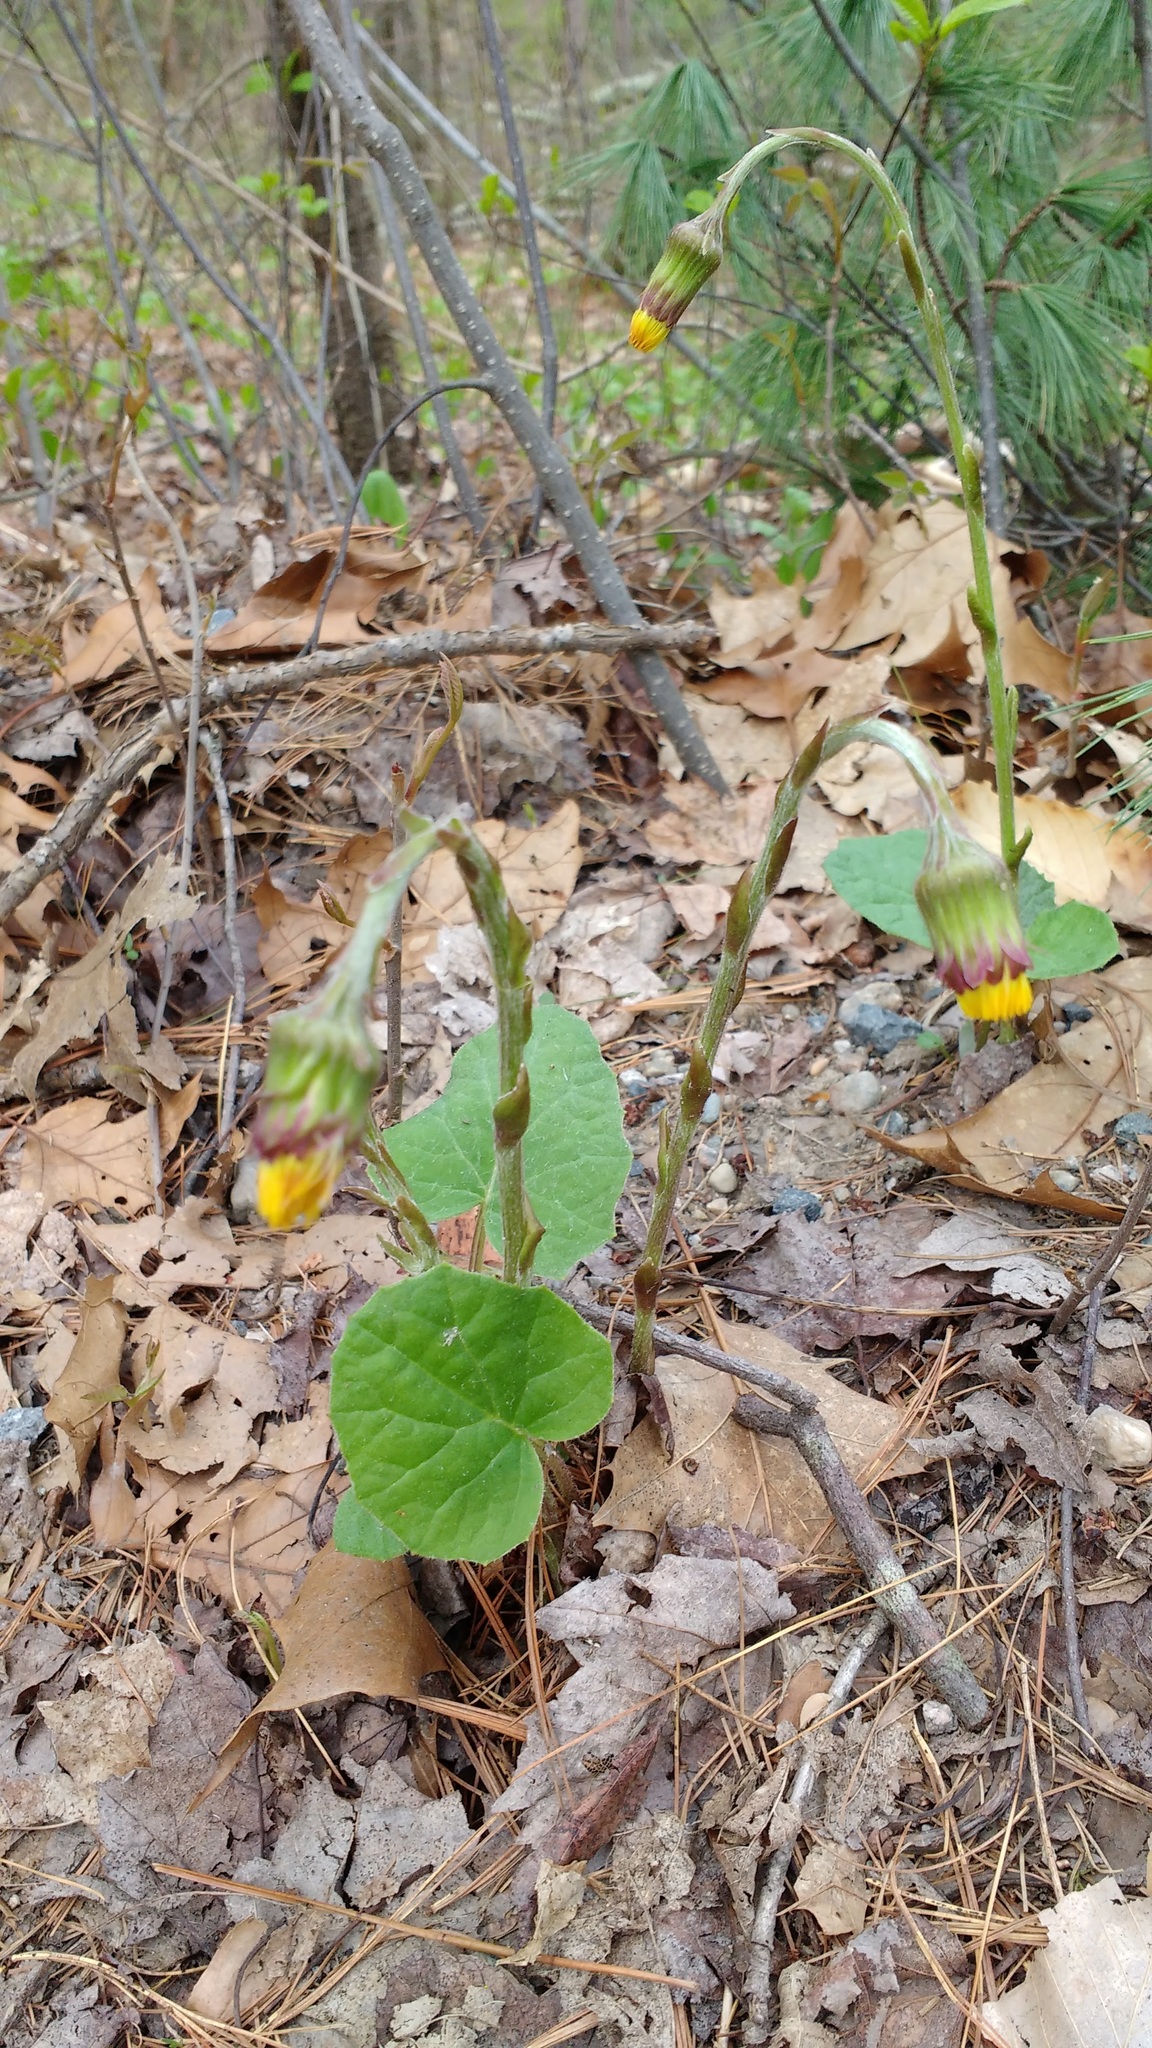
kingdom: Plantae
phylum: Tracheophyta
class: Magnoliopsida
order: Asterales
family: Asteraceae
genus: Tussilago
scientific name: Tussilago farfara
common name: Coltsfoot
